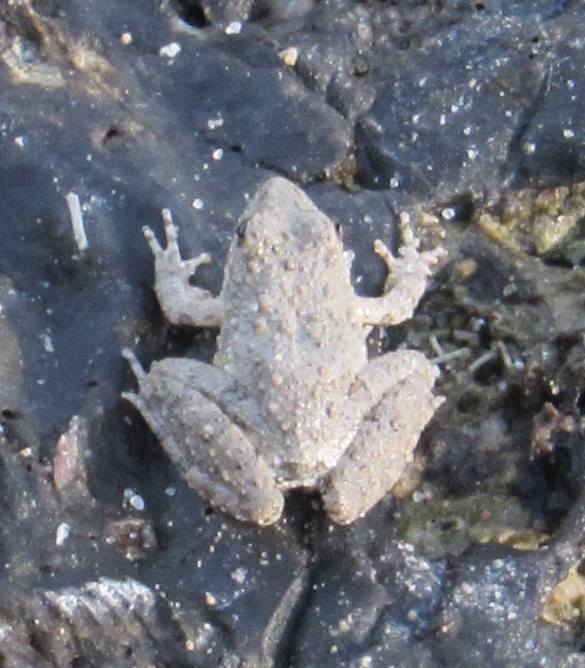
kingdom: Animalia
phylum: Chordata
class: Amphibia
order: Anura
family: Hylidae
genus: Acris
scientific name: Acris blanchardi
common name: Blanchard's cricket frog
